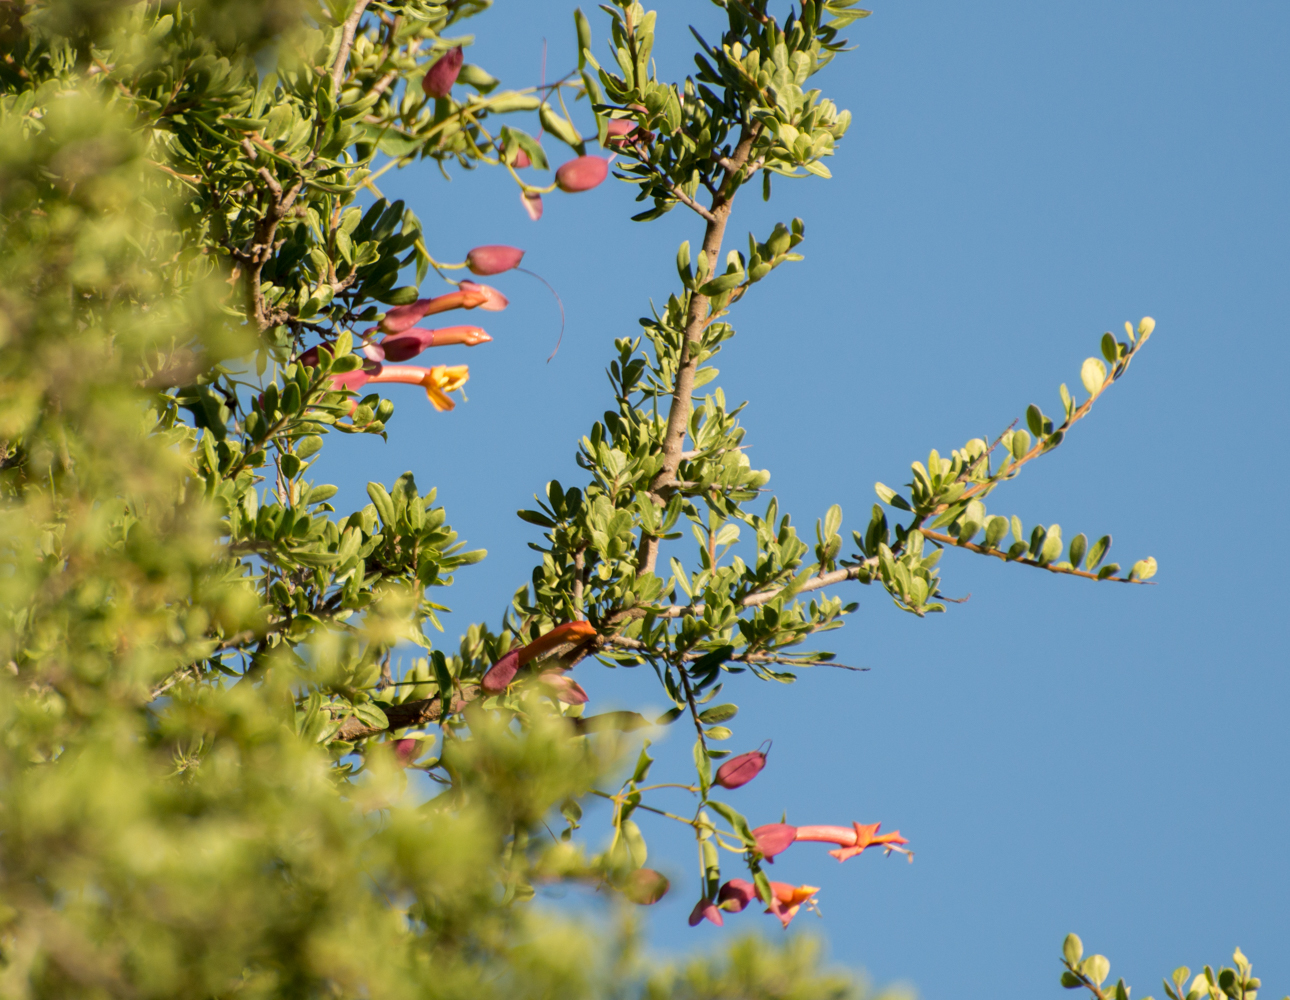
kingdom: Plantae
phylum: Tracheophyta
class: Magnoliopsida
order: Lamiales
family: Bignoniaceae
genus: Dolichandra
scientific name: Dolichandra cynanchoides
